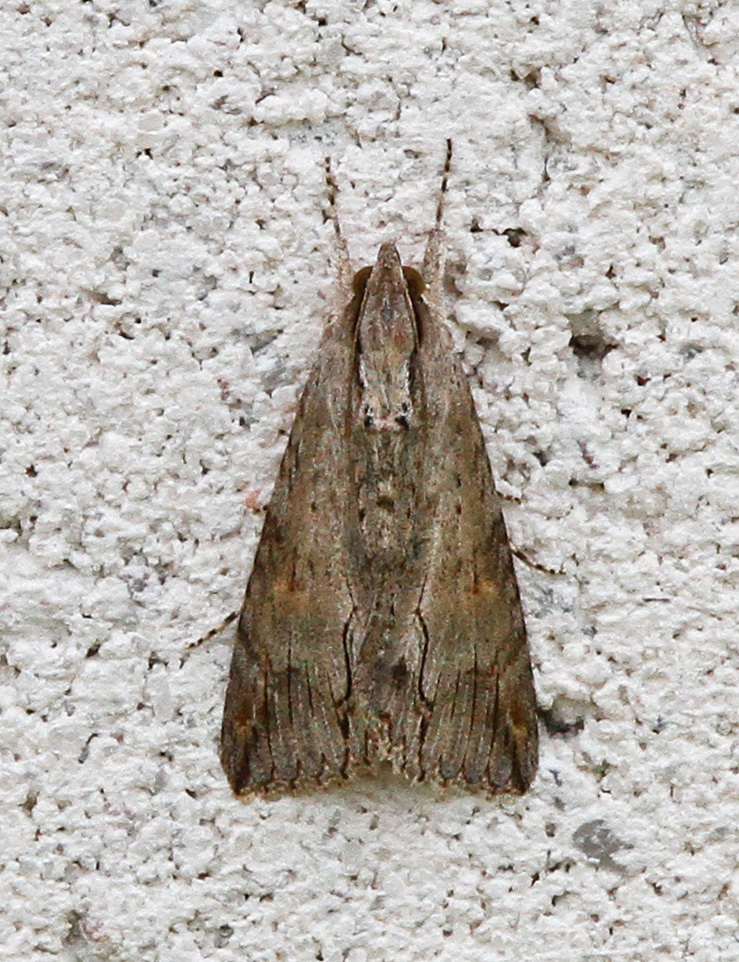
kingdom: Animalia
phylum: Arthropoda
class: Insecta
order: Lepidoptera
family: Erebidae
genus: Melipotis
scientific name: Melipotis acontioides
